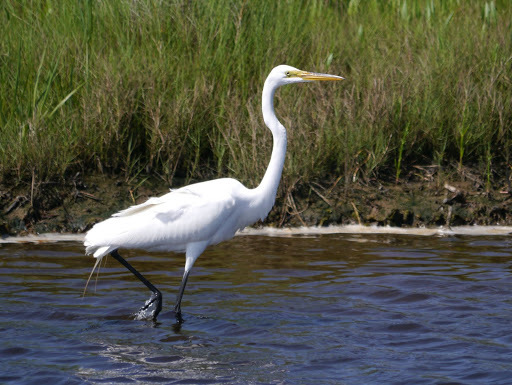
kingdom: Animalia
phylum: Chordata
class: Aves
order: Pelecaniformes
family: Ardeidae
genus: Ardea
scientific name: Ardea alba
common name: Great egret
